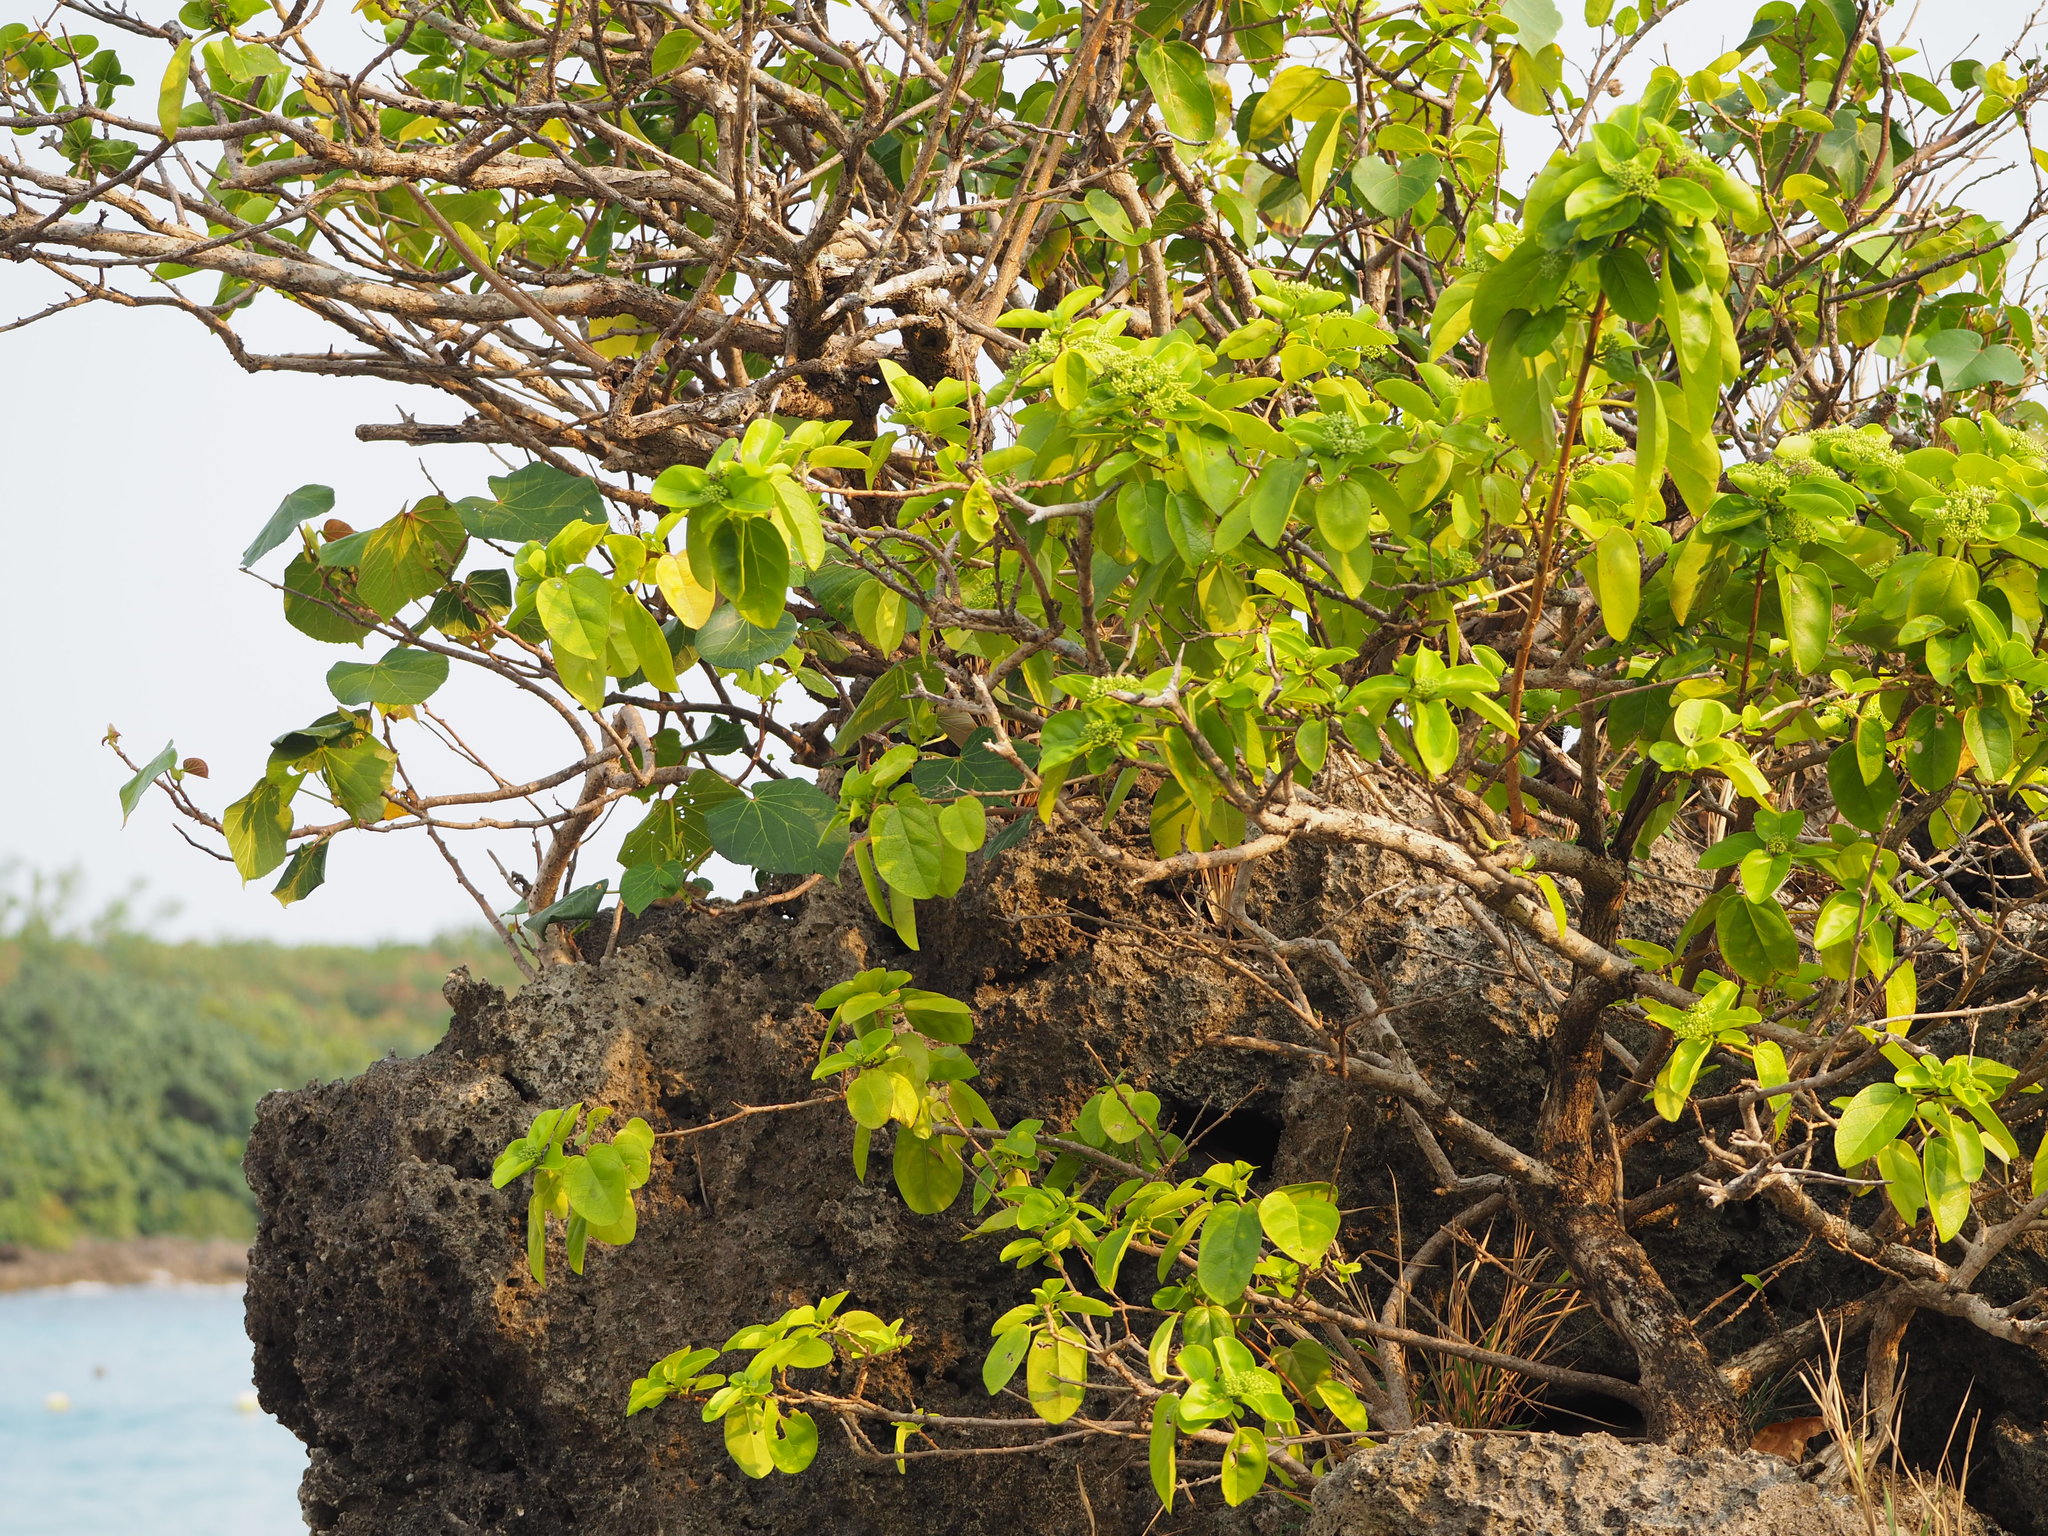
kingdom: Plantae
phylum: Tracheophyta
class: Magnoliopsida
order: Lamiales
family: Lamiaceae
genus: Premna
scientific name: Premna serratifolia
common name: Bastard guelder
